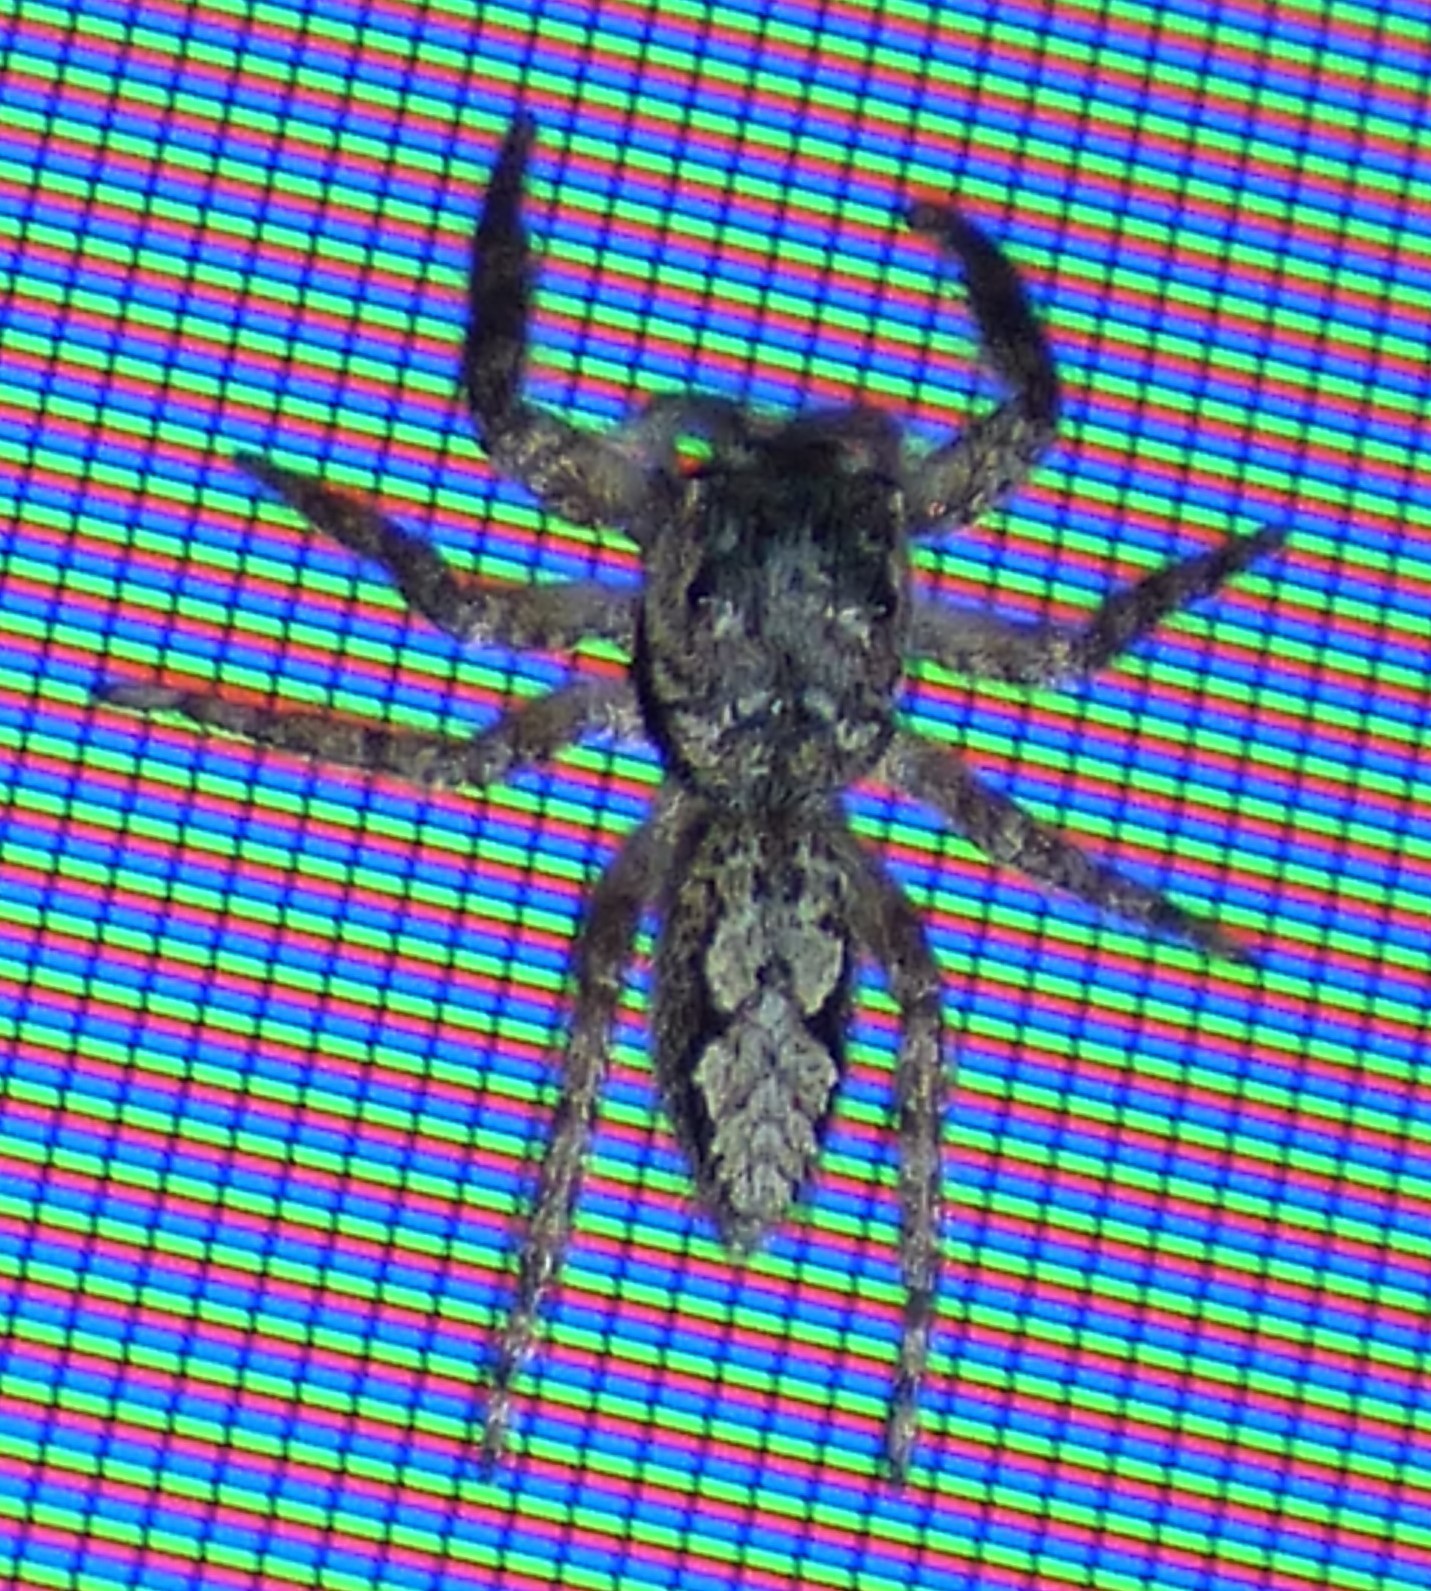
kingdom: Animalia
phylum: Arthropoda
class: Arachnida
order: Araneae
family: Salticidae
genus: Platycryptus
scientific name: Platycryptus undatus
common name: Tan jumping spider
